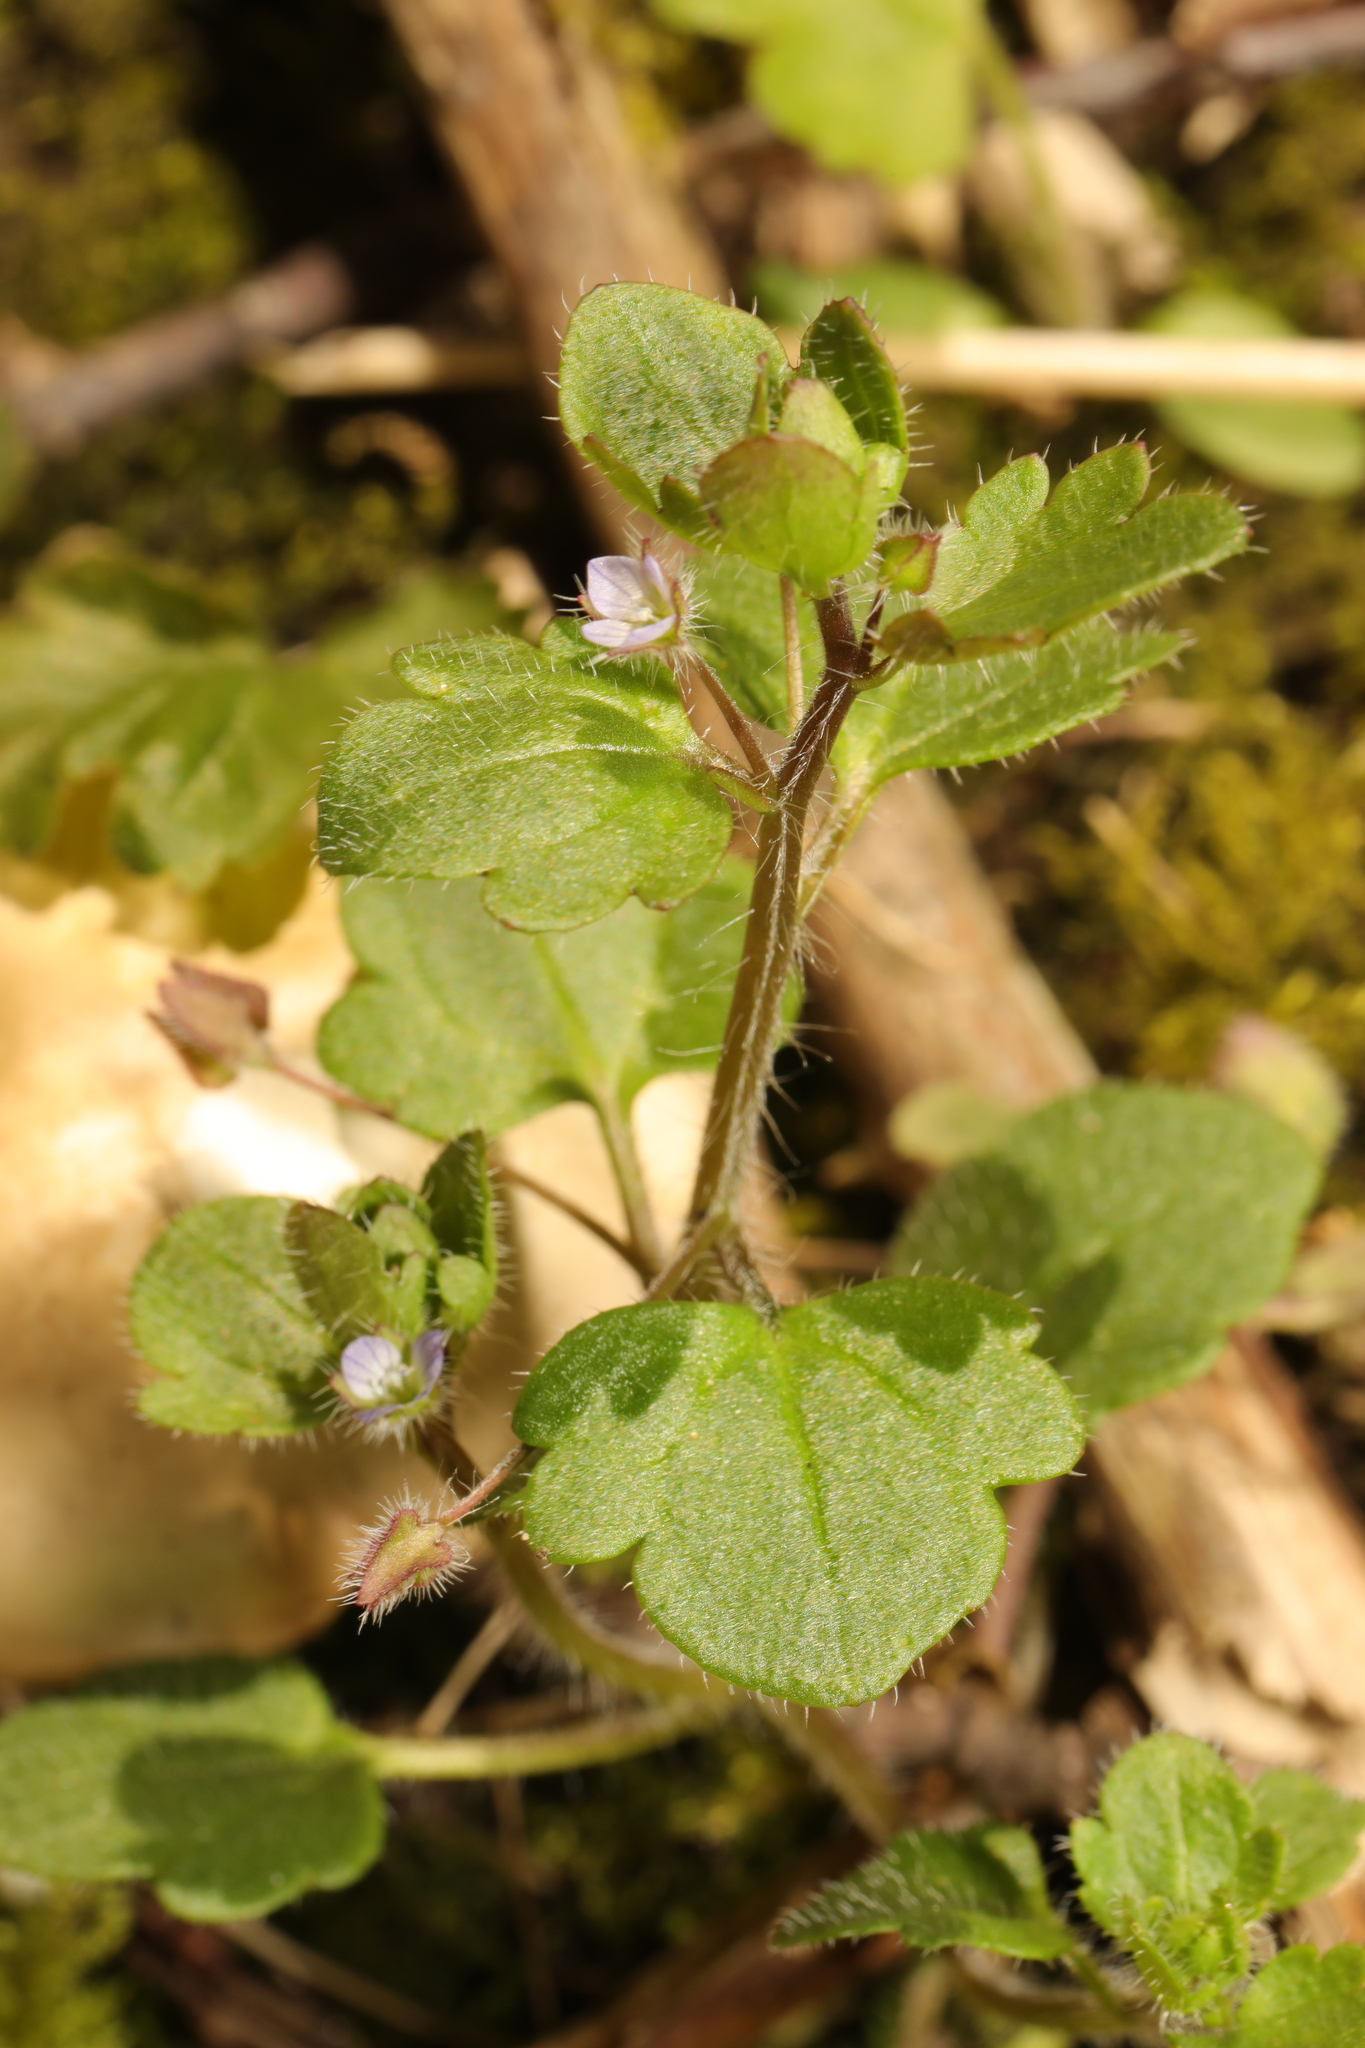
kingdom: Plantae
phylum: Tracheophyta
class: Magnoliopsida
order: Lamiales
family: Plantaginaceae
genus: Veronica
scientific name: Veronica sublobata
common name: False ivy-leaved speedwell
